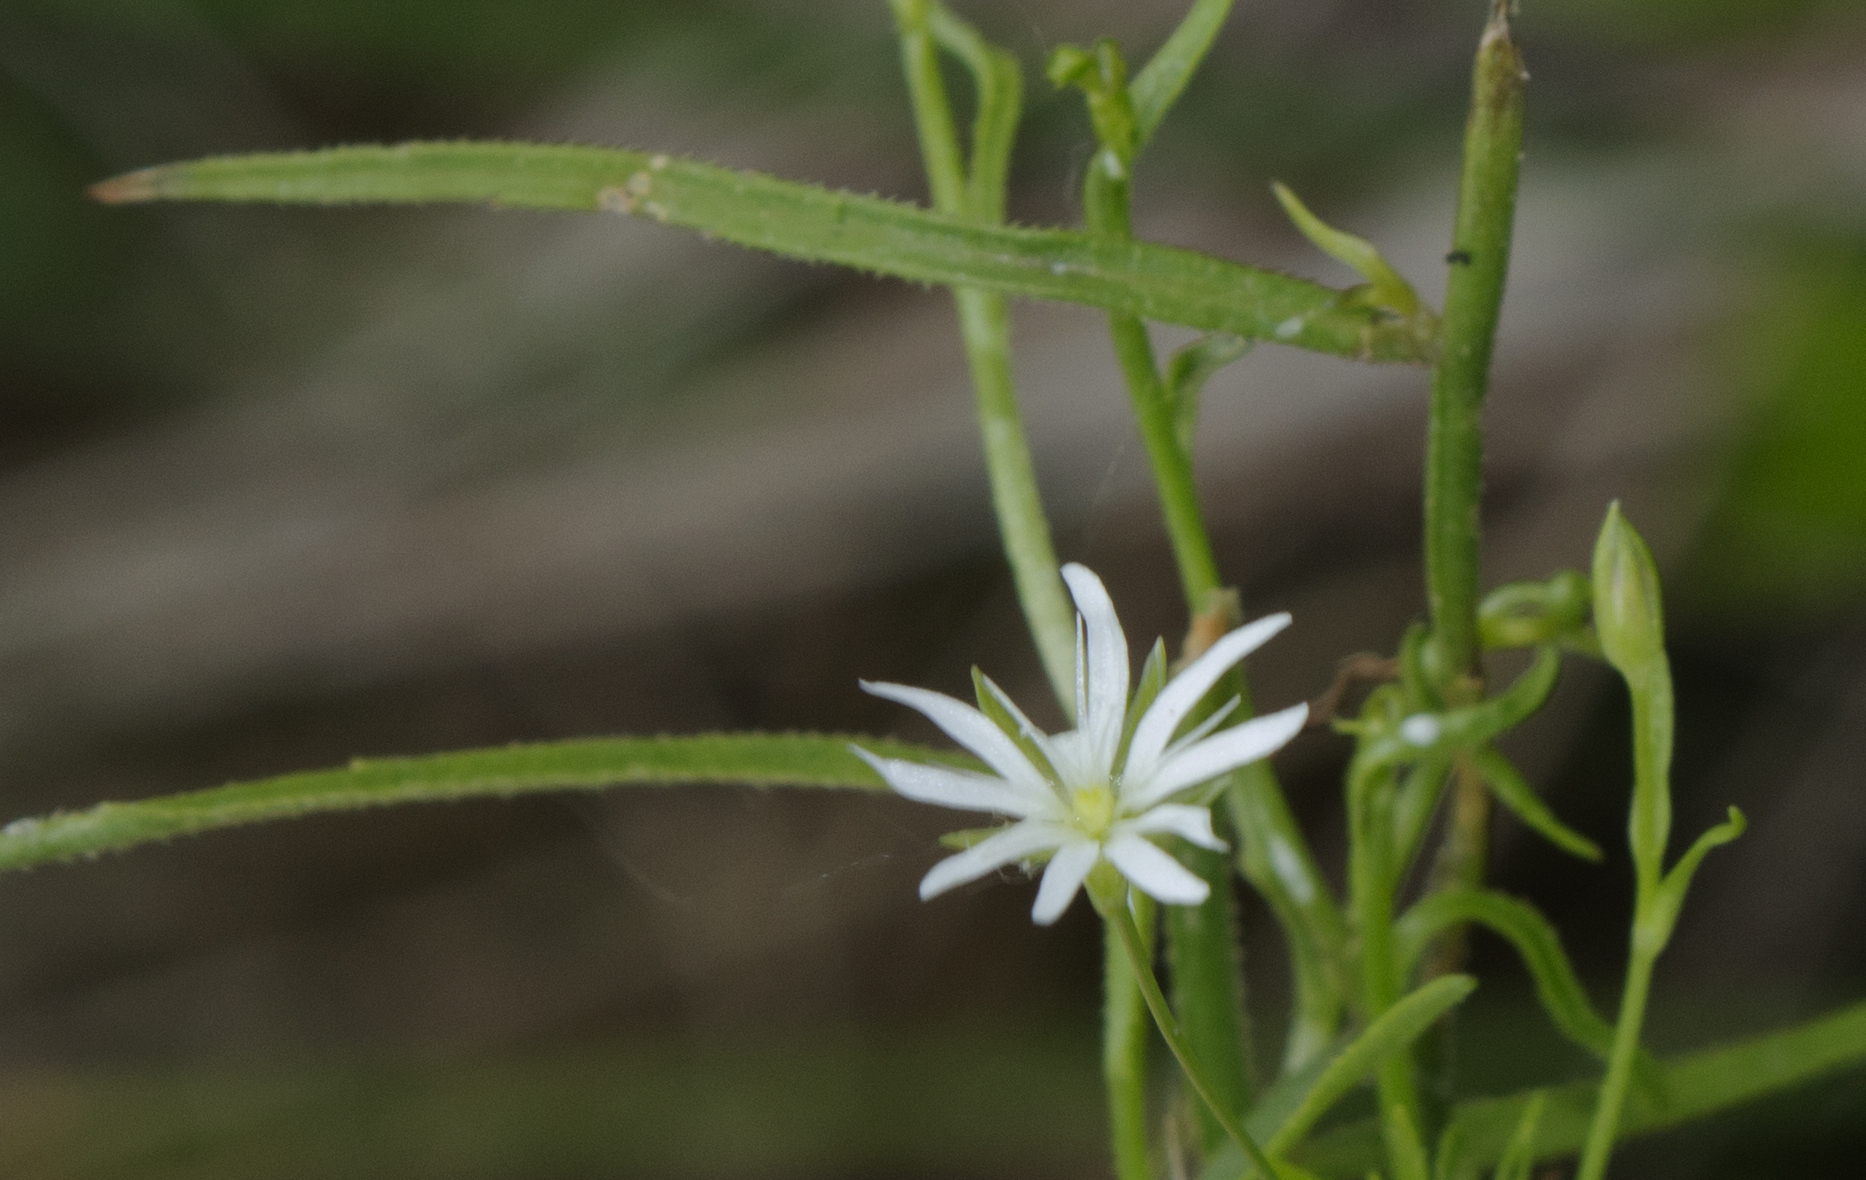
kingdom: Plantae
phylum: Tracheophyta
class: Magnoliopsida
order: Caryophyllales
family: Caryophyllaceae
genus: Stellaria
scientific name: Stellaria longifolia
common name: Long-leaved chickweed
